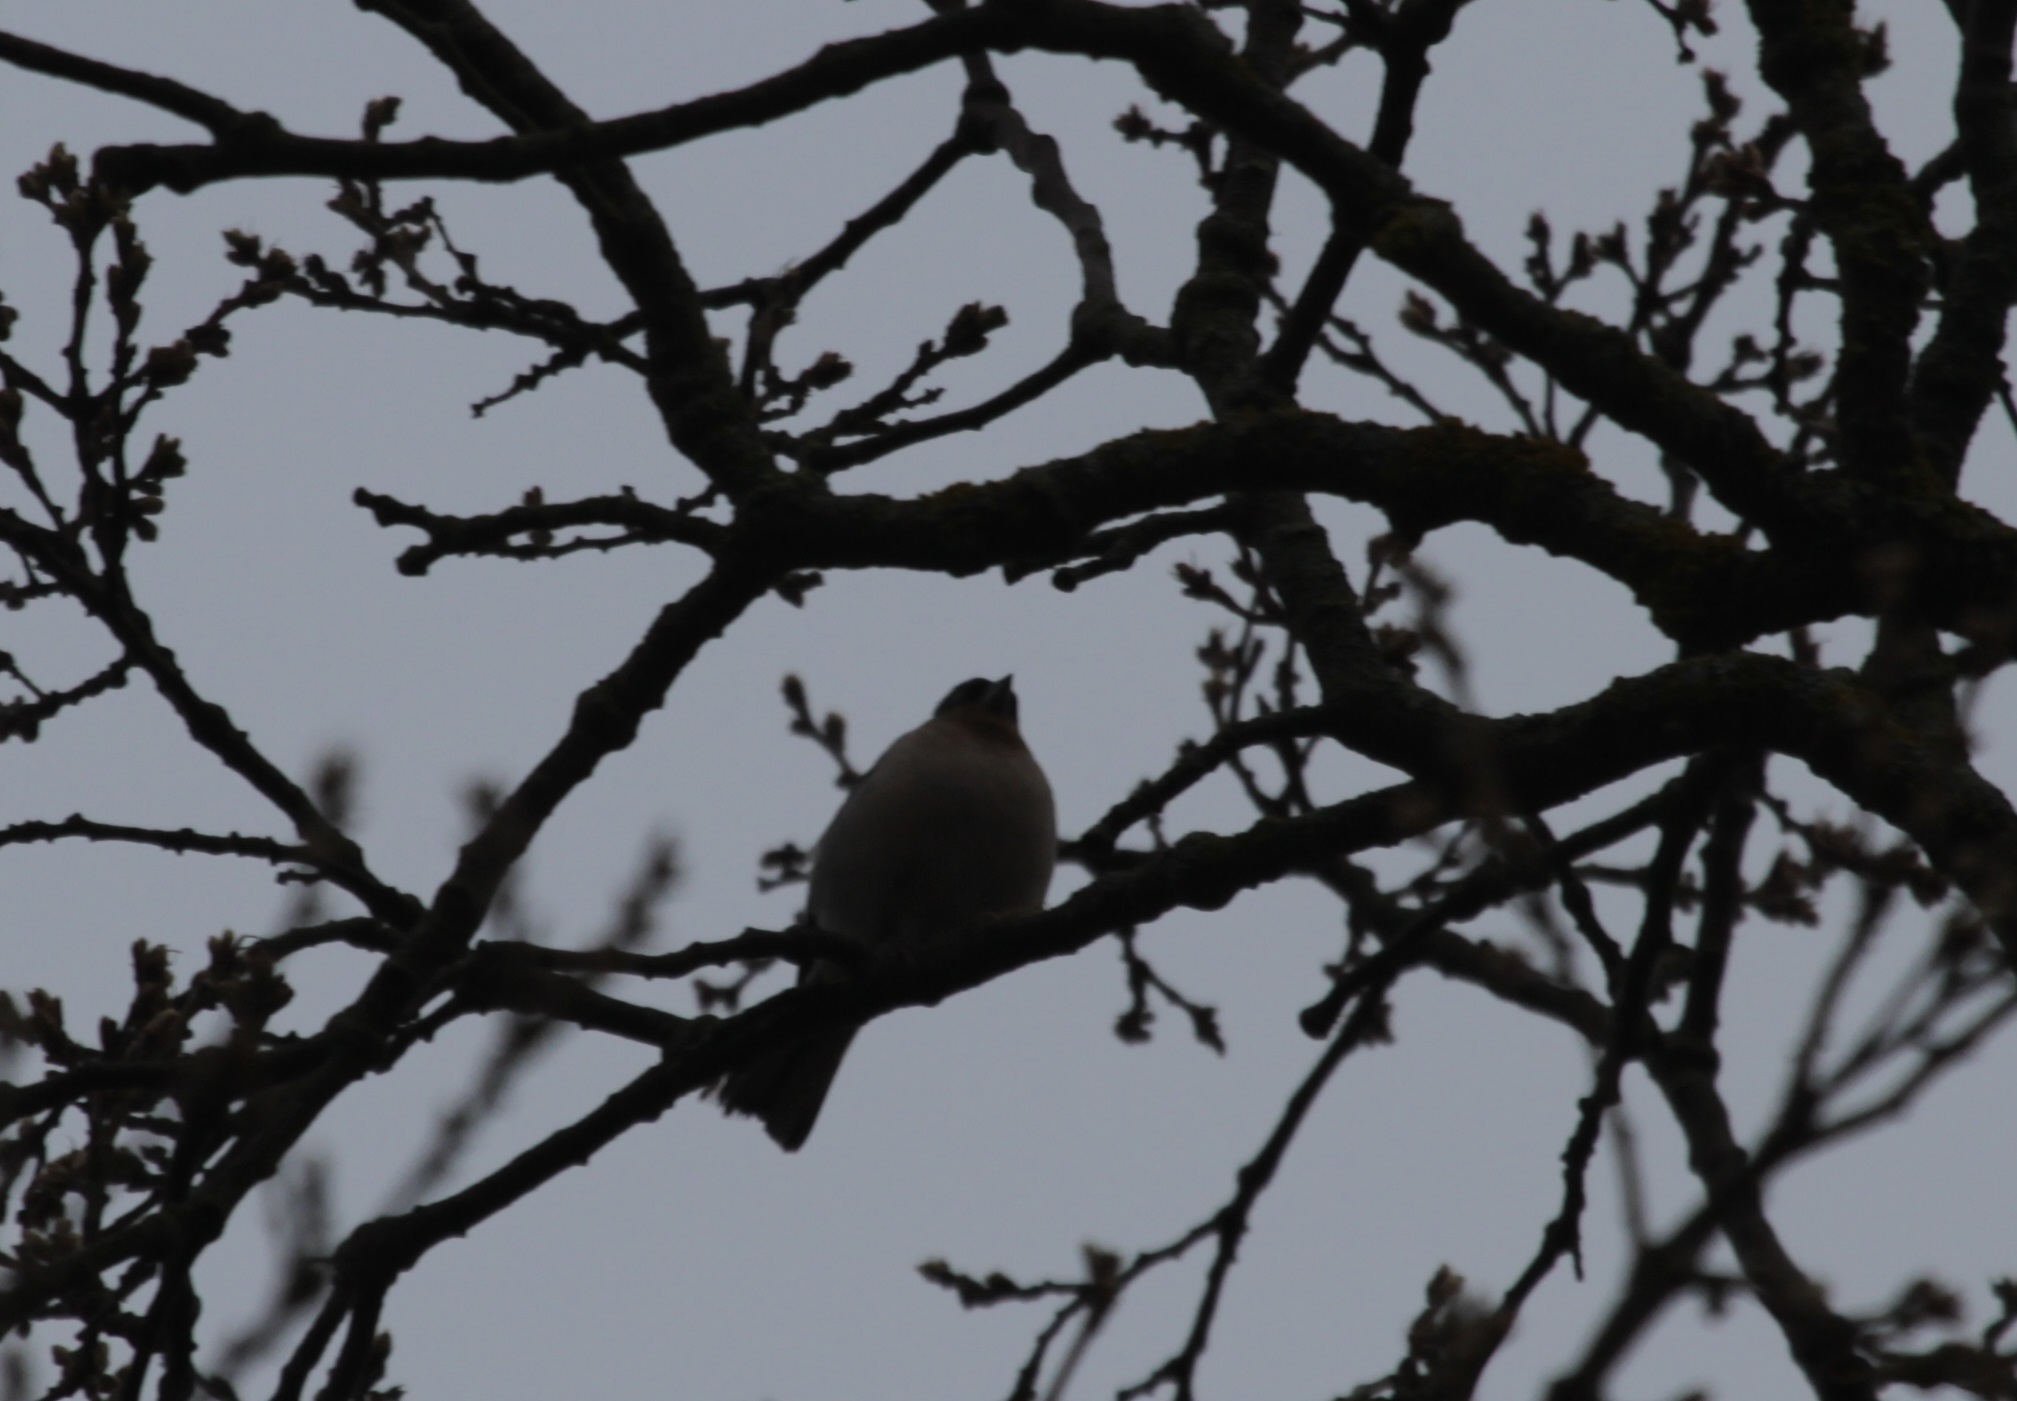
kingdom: Animalia
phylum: Chordata
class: Aves
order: Passeriformes
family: Fringillidae
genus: Fringilla
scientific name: Fringilla spodiogenys
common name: African chaffinch
